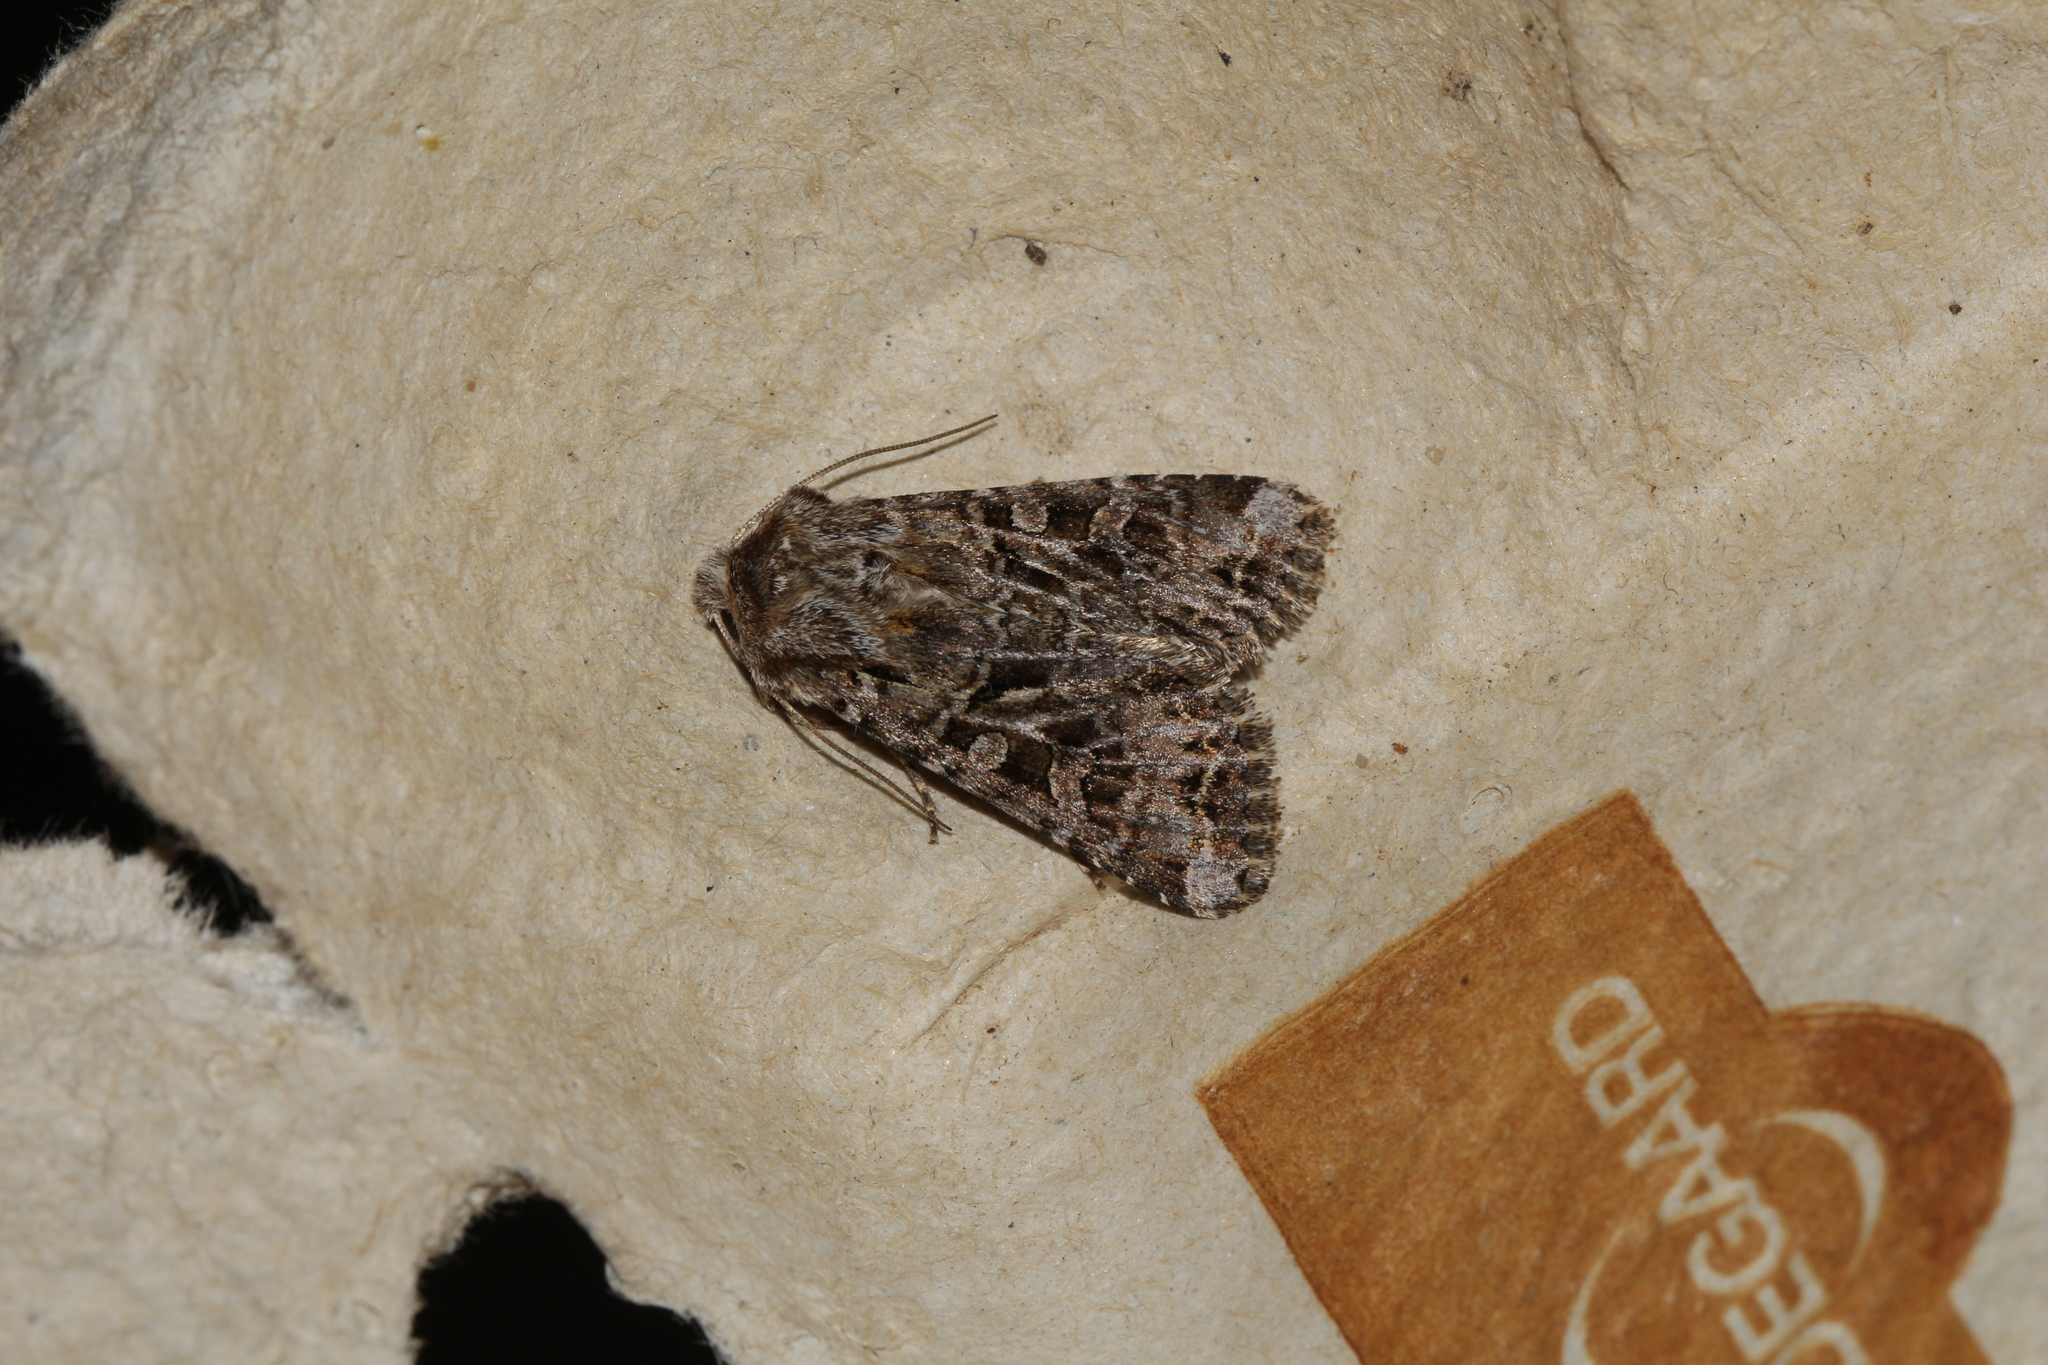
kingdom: Animalia
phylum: Arthropoda
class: Insecta
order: Lepidoptera
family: Noctuidae
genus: Hada
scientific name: Hada plebeja
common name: Shears
